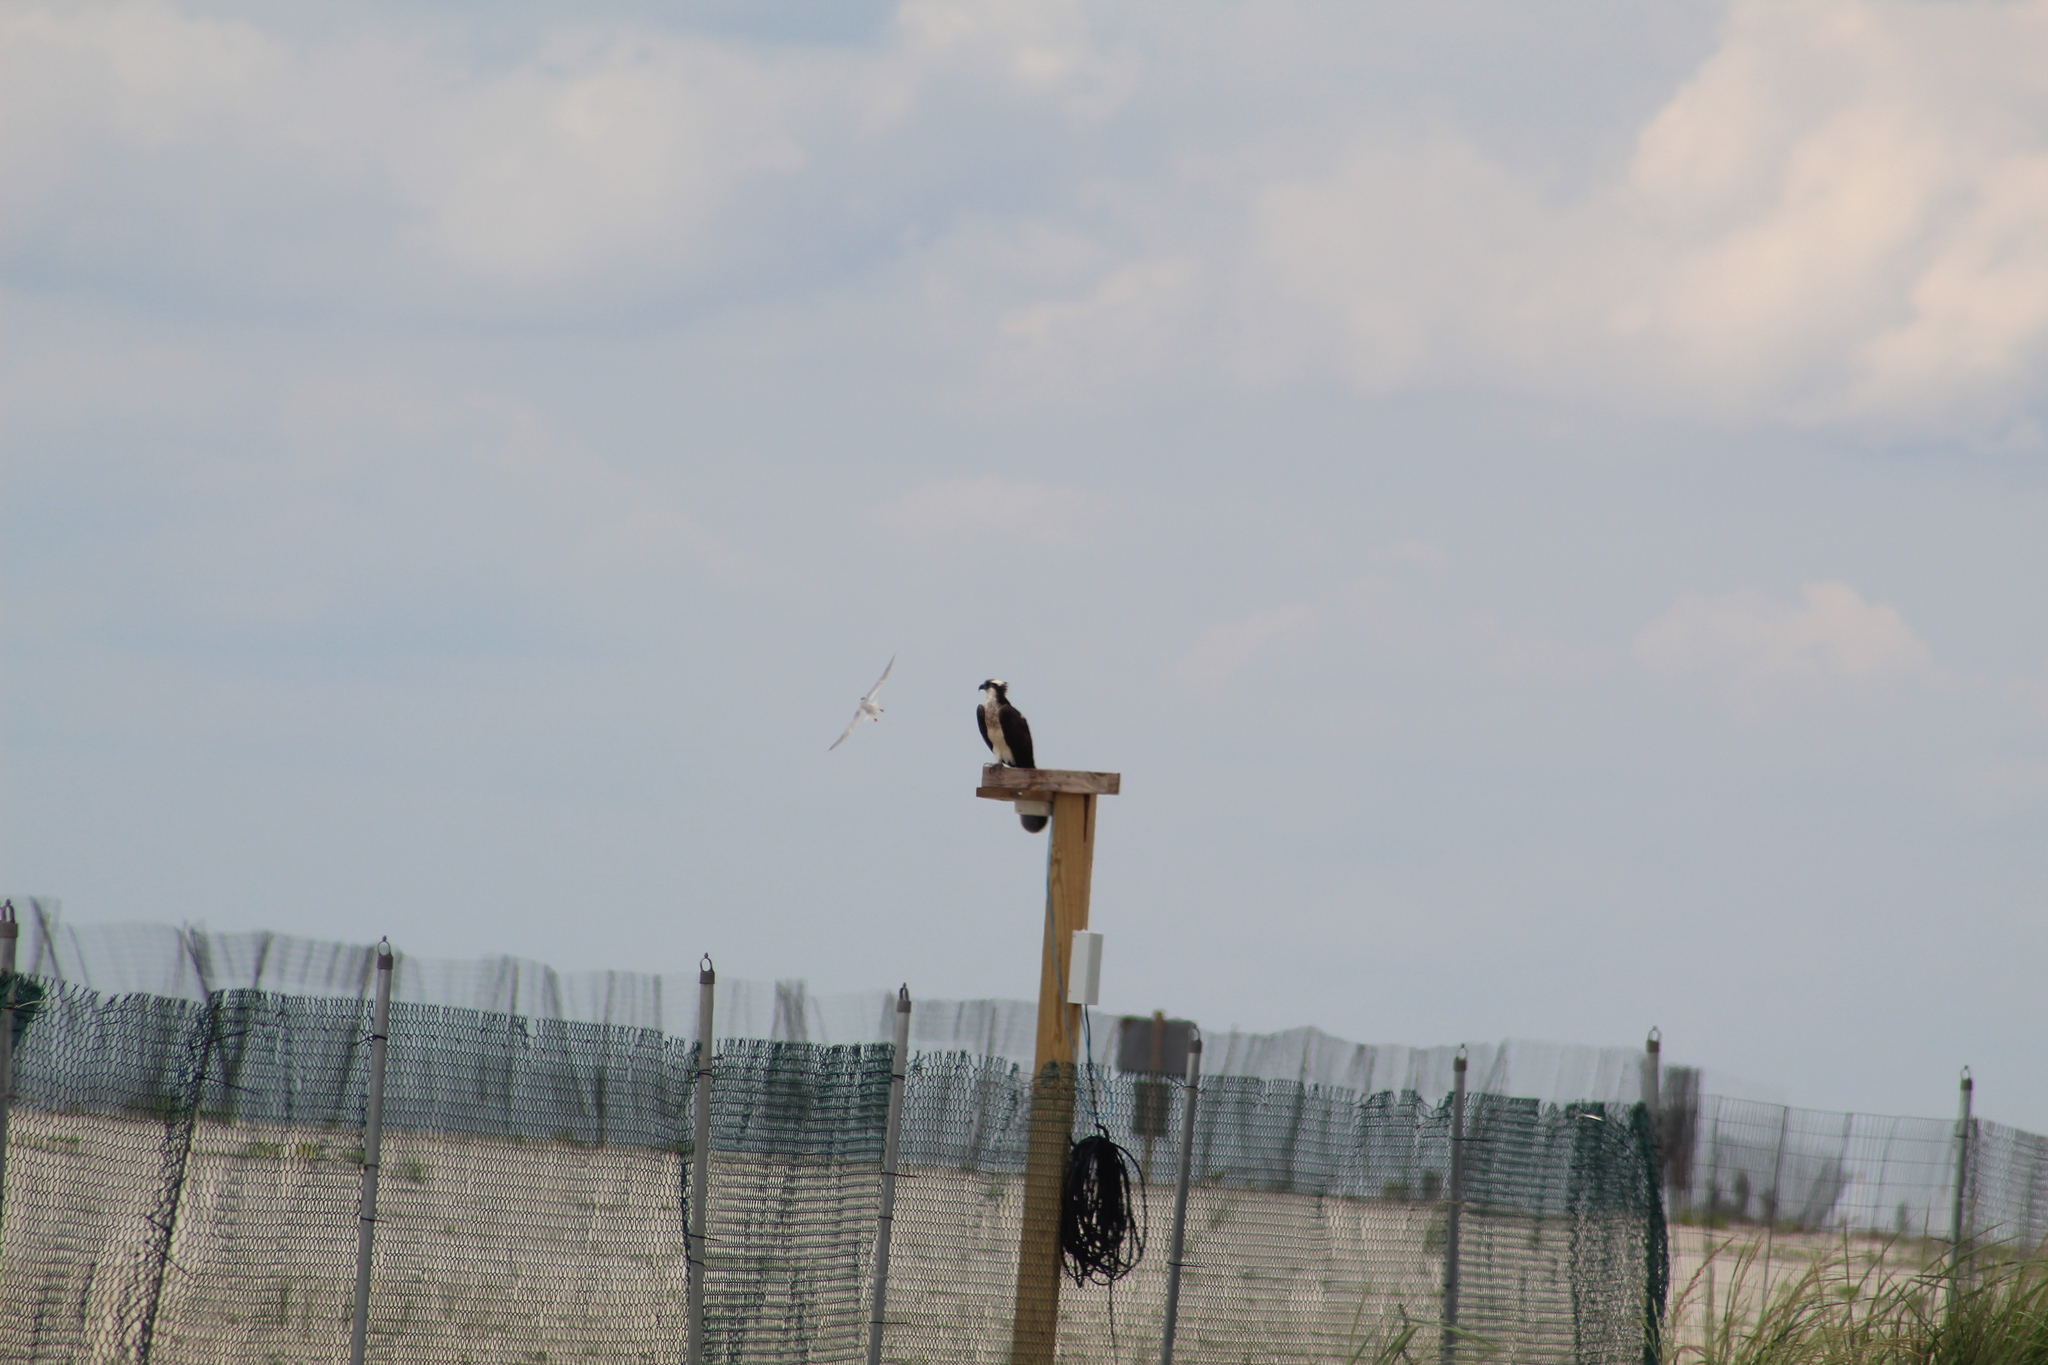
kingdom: Animalia
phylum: Chordata
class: Aves
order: Accipitriformes
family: Pandionidae
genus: Pandion
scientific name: Pandion haliaetus
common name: Osprey
